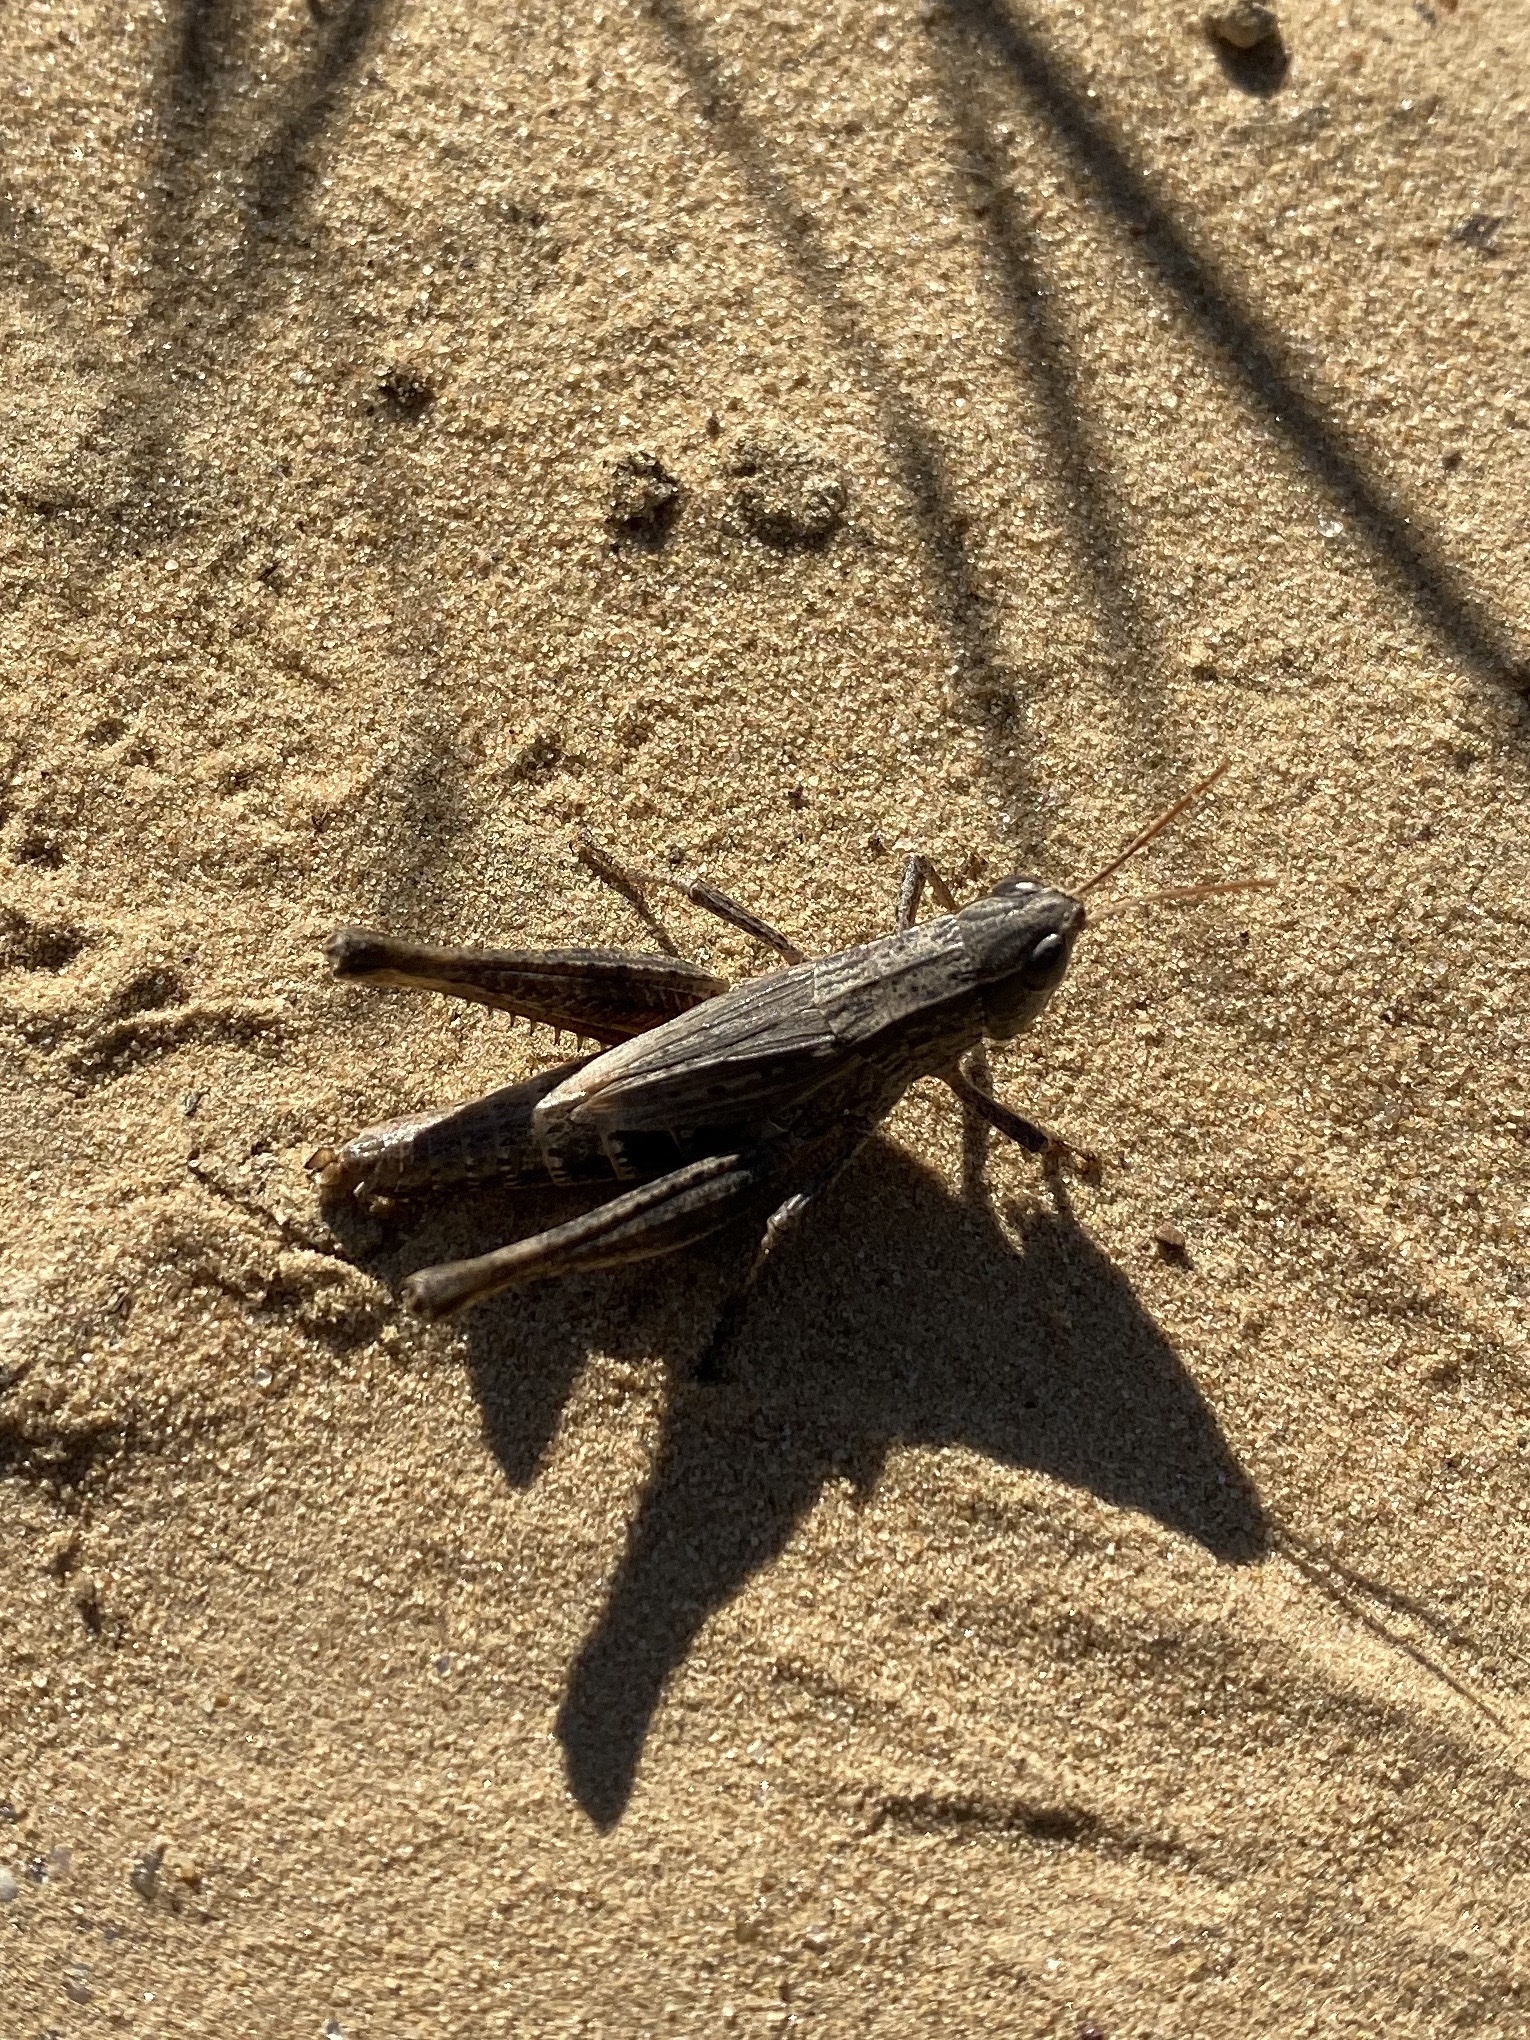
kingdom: Animalia
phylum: Arthropoda
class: Insecta
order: Orthoptera
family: Acrididae
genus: Dichromorpha
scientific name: Dichromorpha viridis
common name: Short-winged green grasshopper
